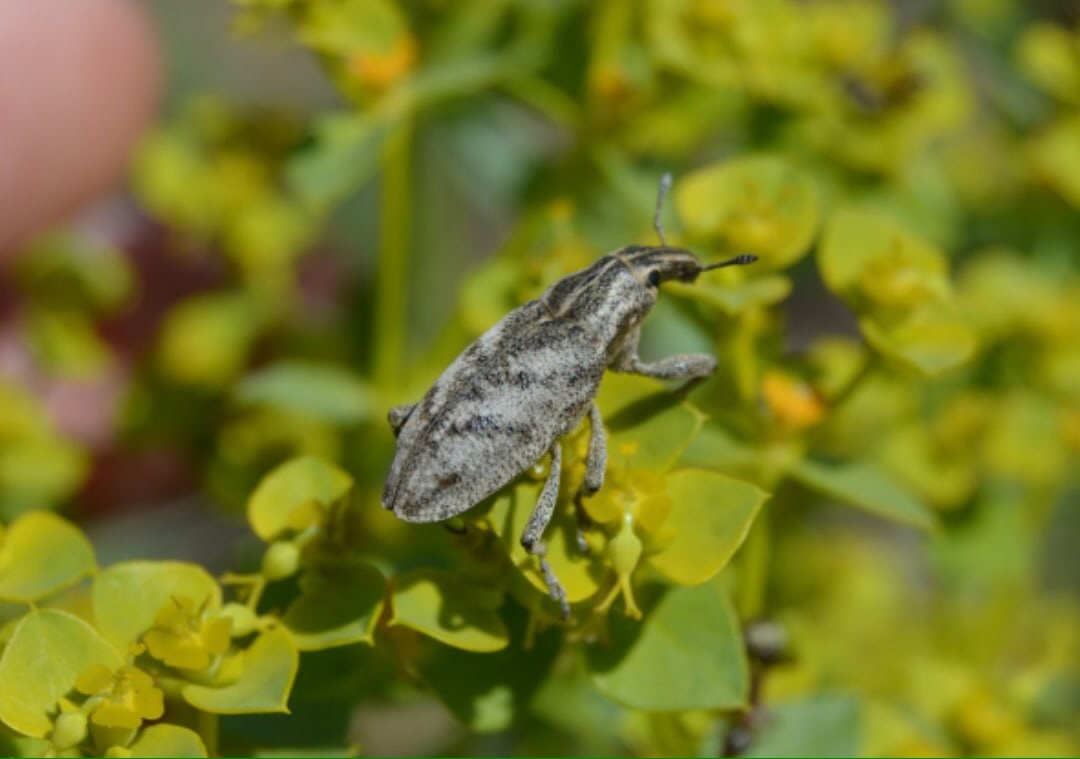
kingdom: Animalia
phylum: Arthropoda
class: Insecta
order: Coleoptera
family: Curculionidae
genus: Cleonis
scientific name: Cleonis pigra
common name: Large thistle weevil
